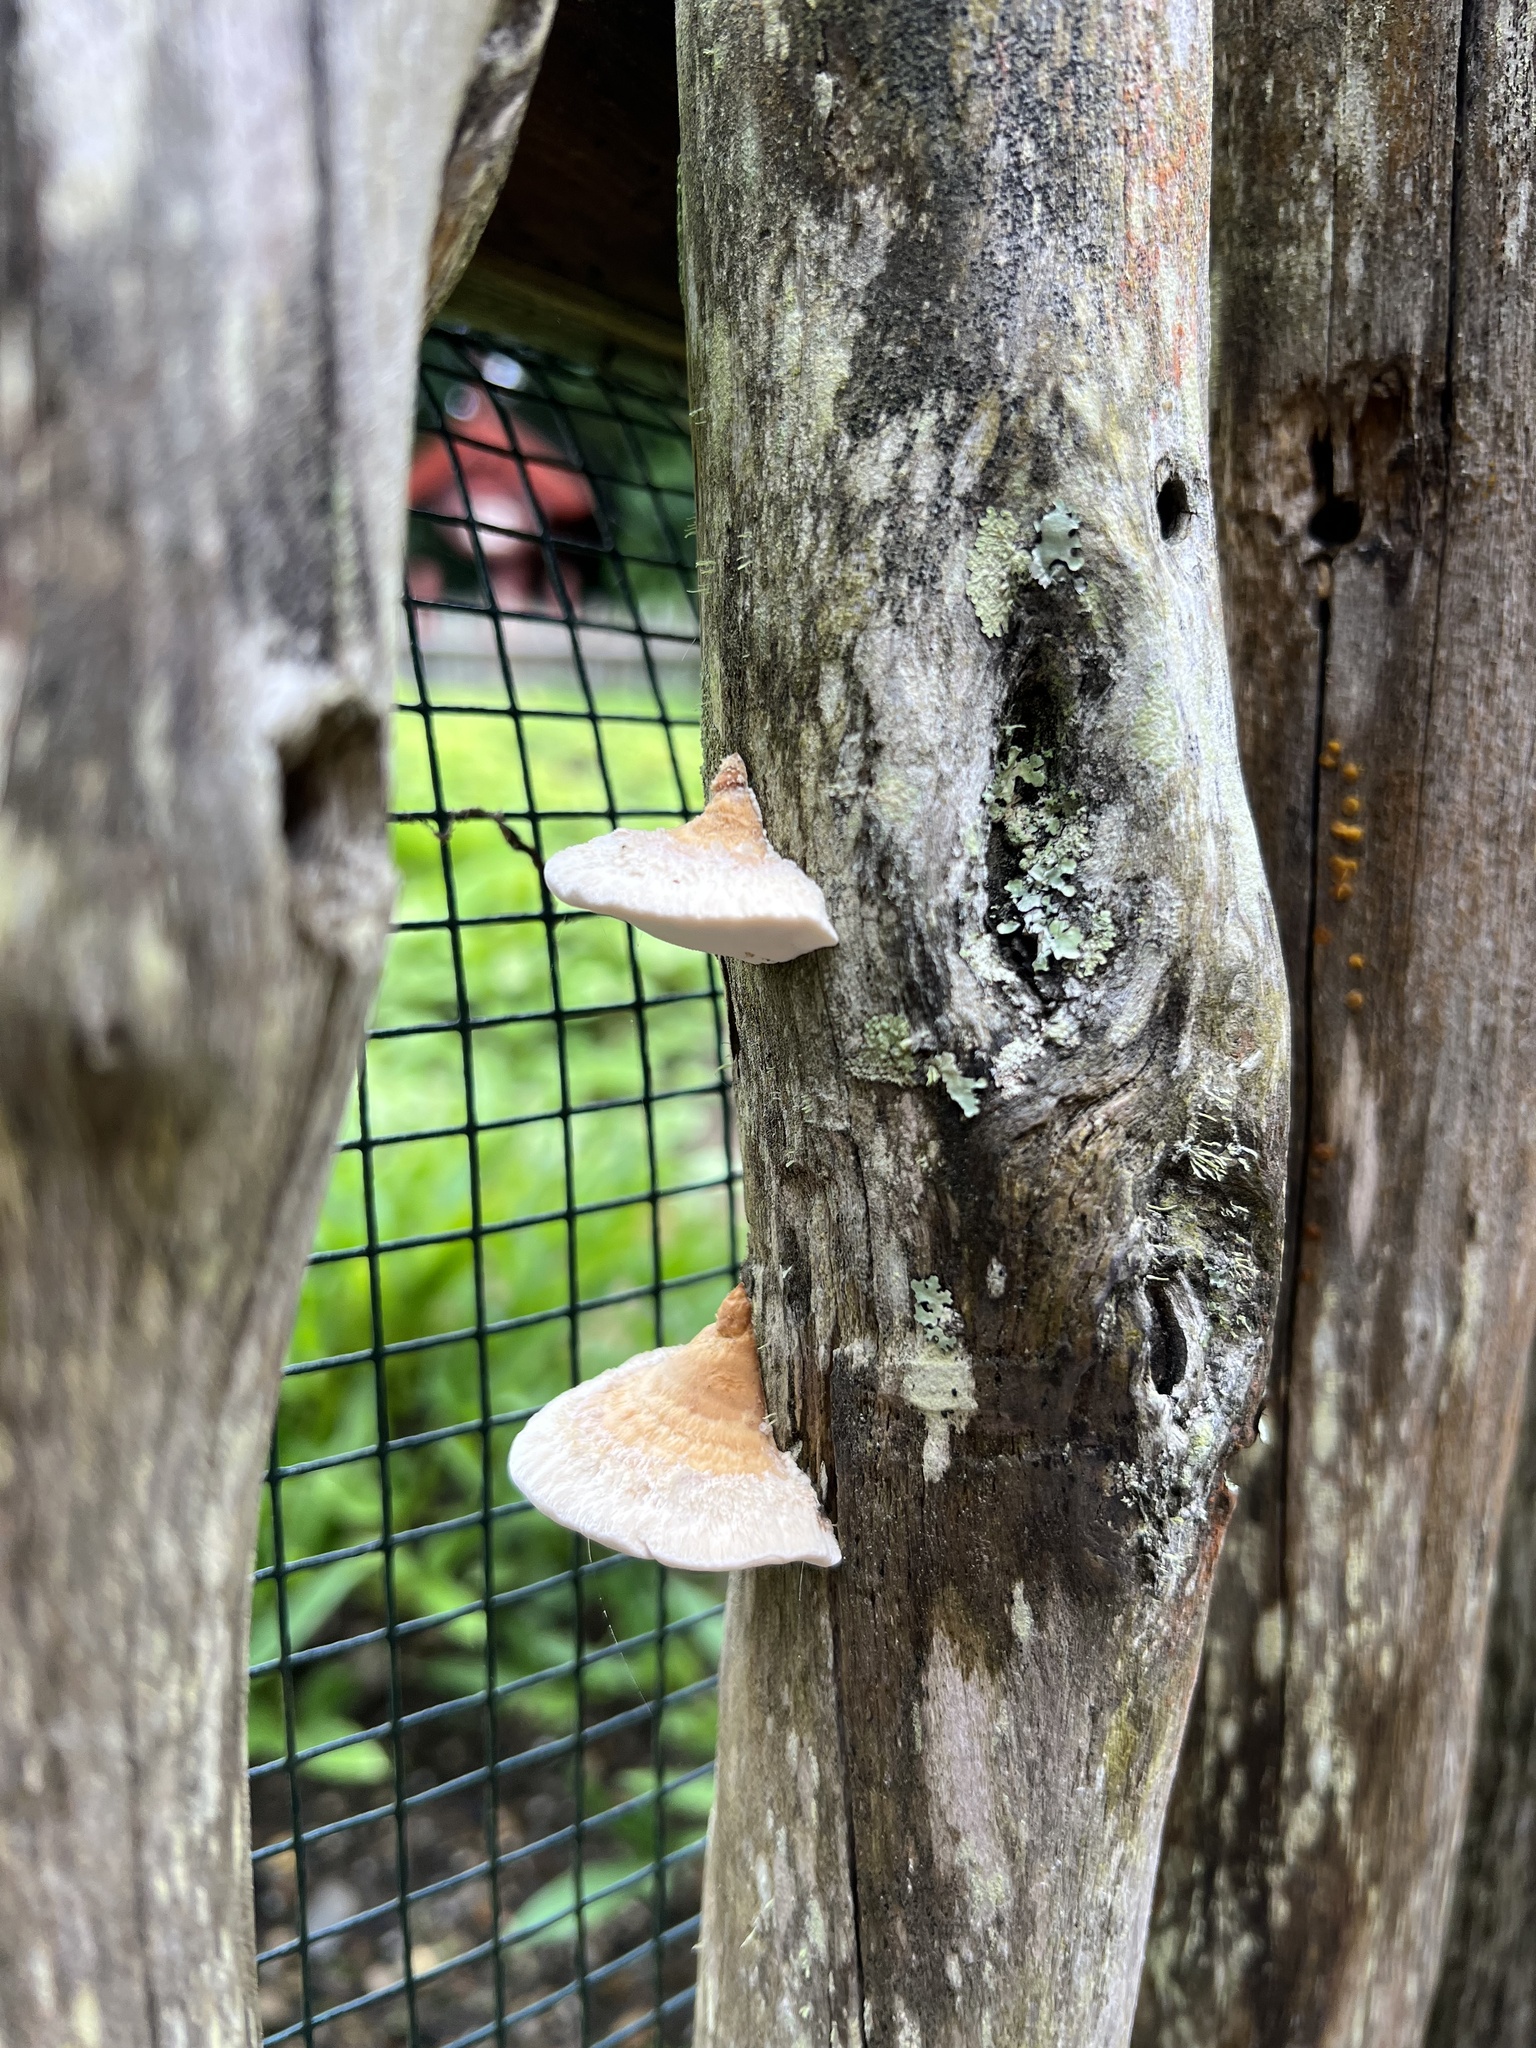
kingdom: Fungi
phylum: Basidiomycota
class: Agaricomycetes
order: Polyporales
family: Polyporaceae
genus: Truncospora
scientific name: Truncospora ochroleuca
